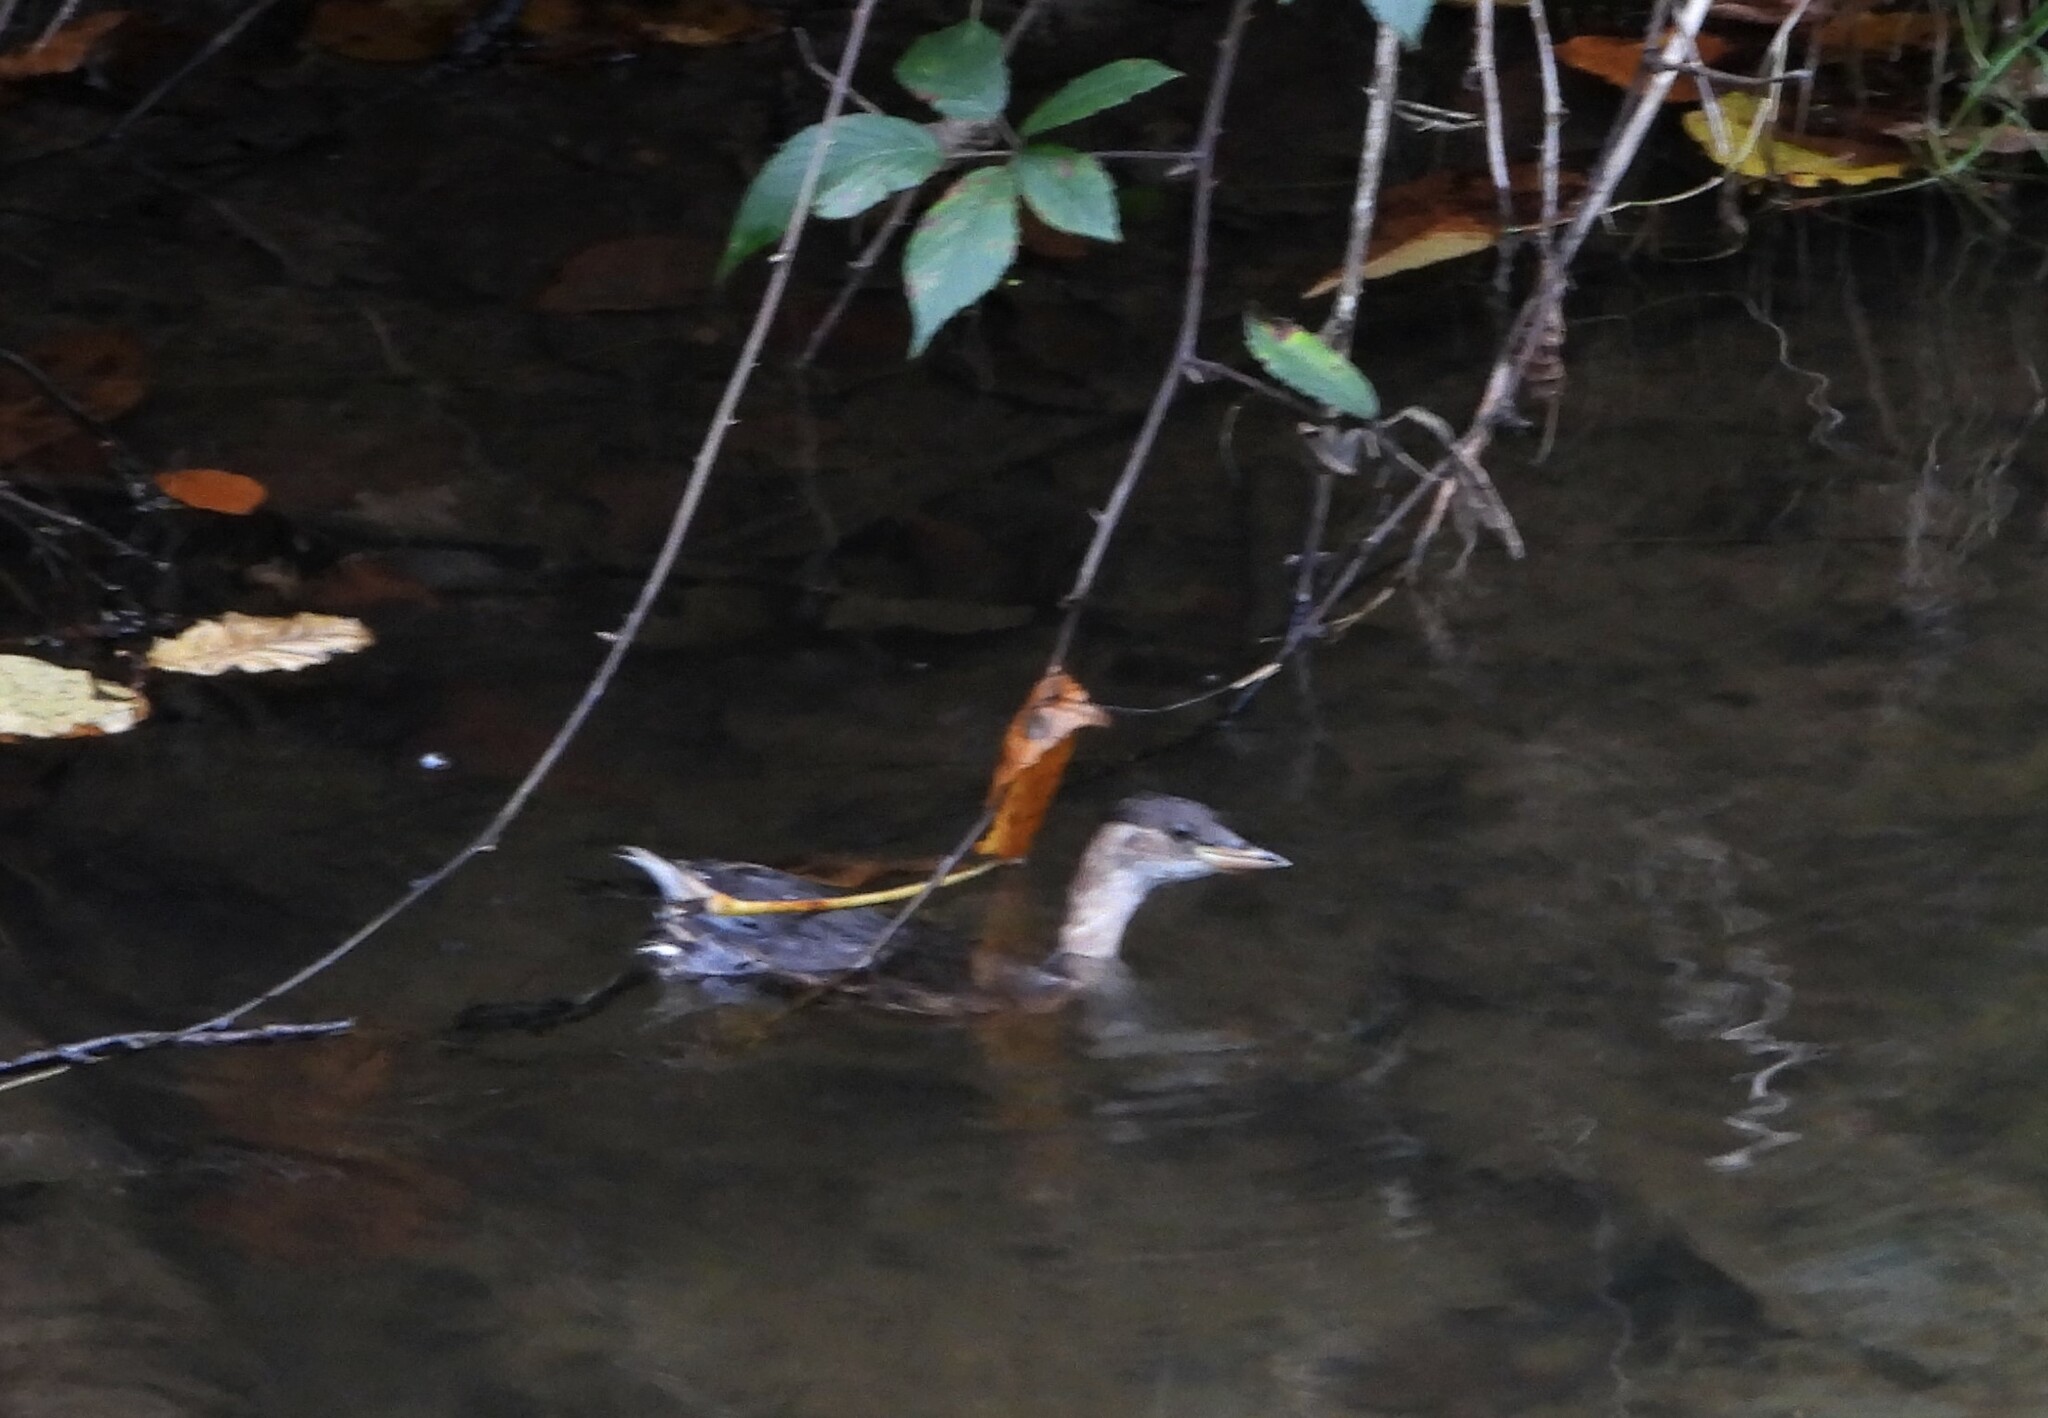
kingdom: Animalia
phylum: Chordata
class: Aves
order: Podicipediformes
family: Podicipedidae
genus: Tachybaptus
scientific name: Tachybaptus ruficollis
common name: Little grebe
